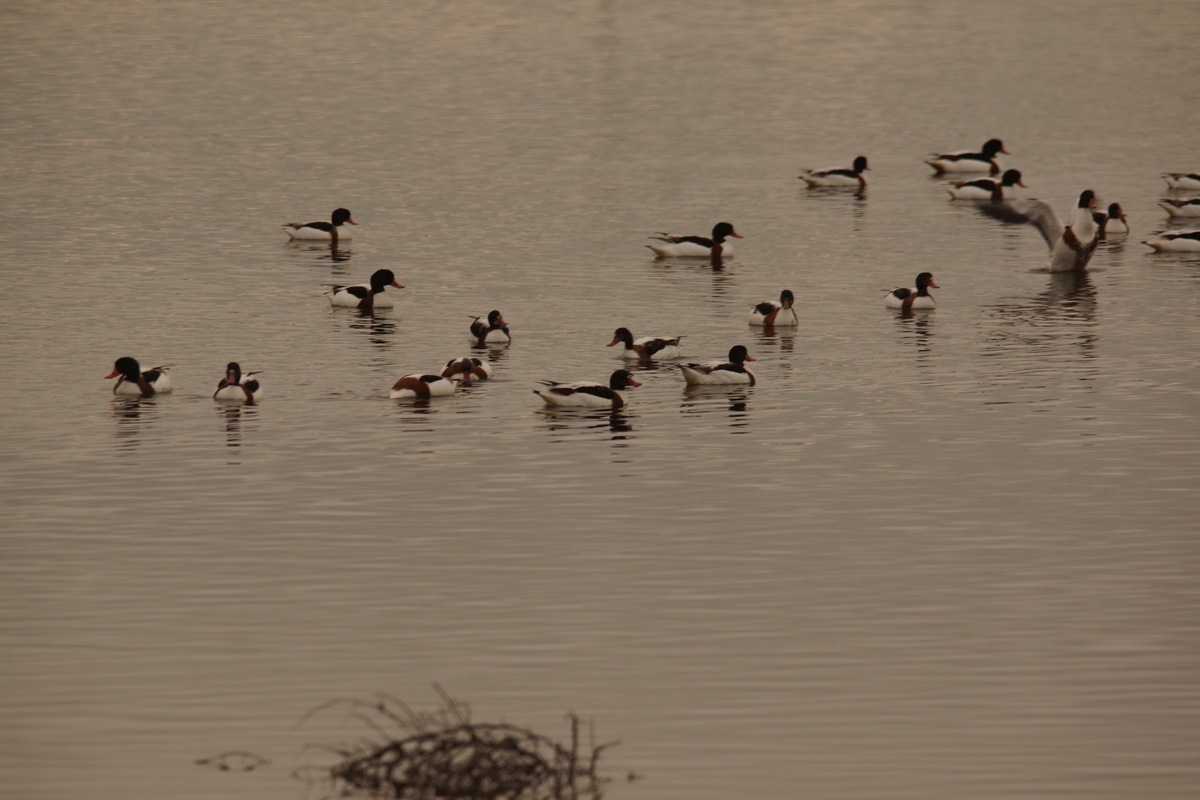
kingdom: Animalia
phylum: Chordata
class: Aves
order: Anseriformes
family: Anatidae
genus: Tadorna
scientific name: Tadorna tadorna
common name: Common shelduck
